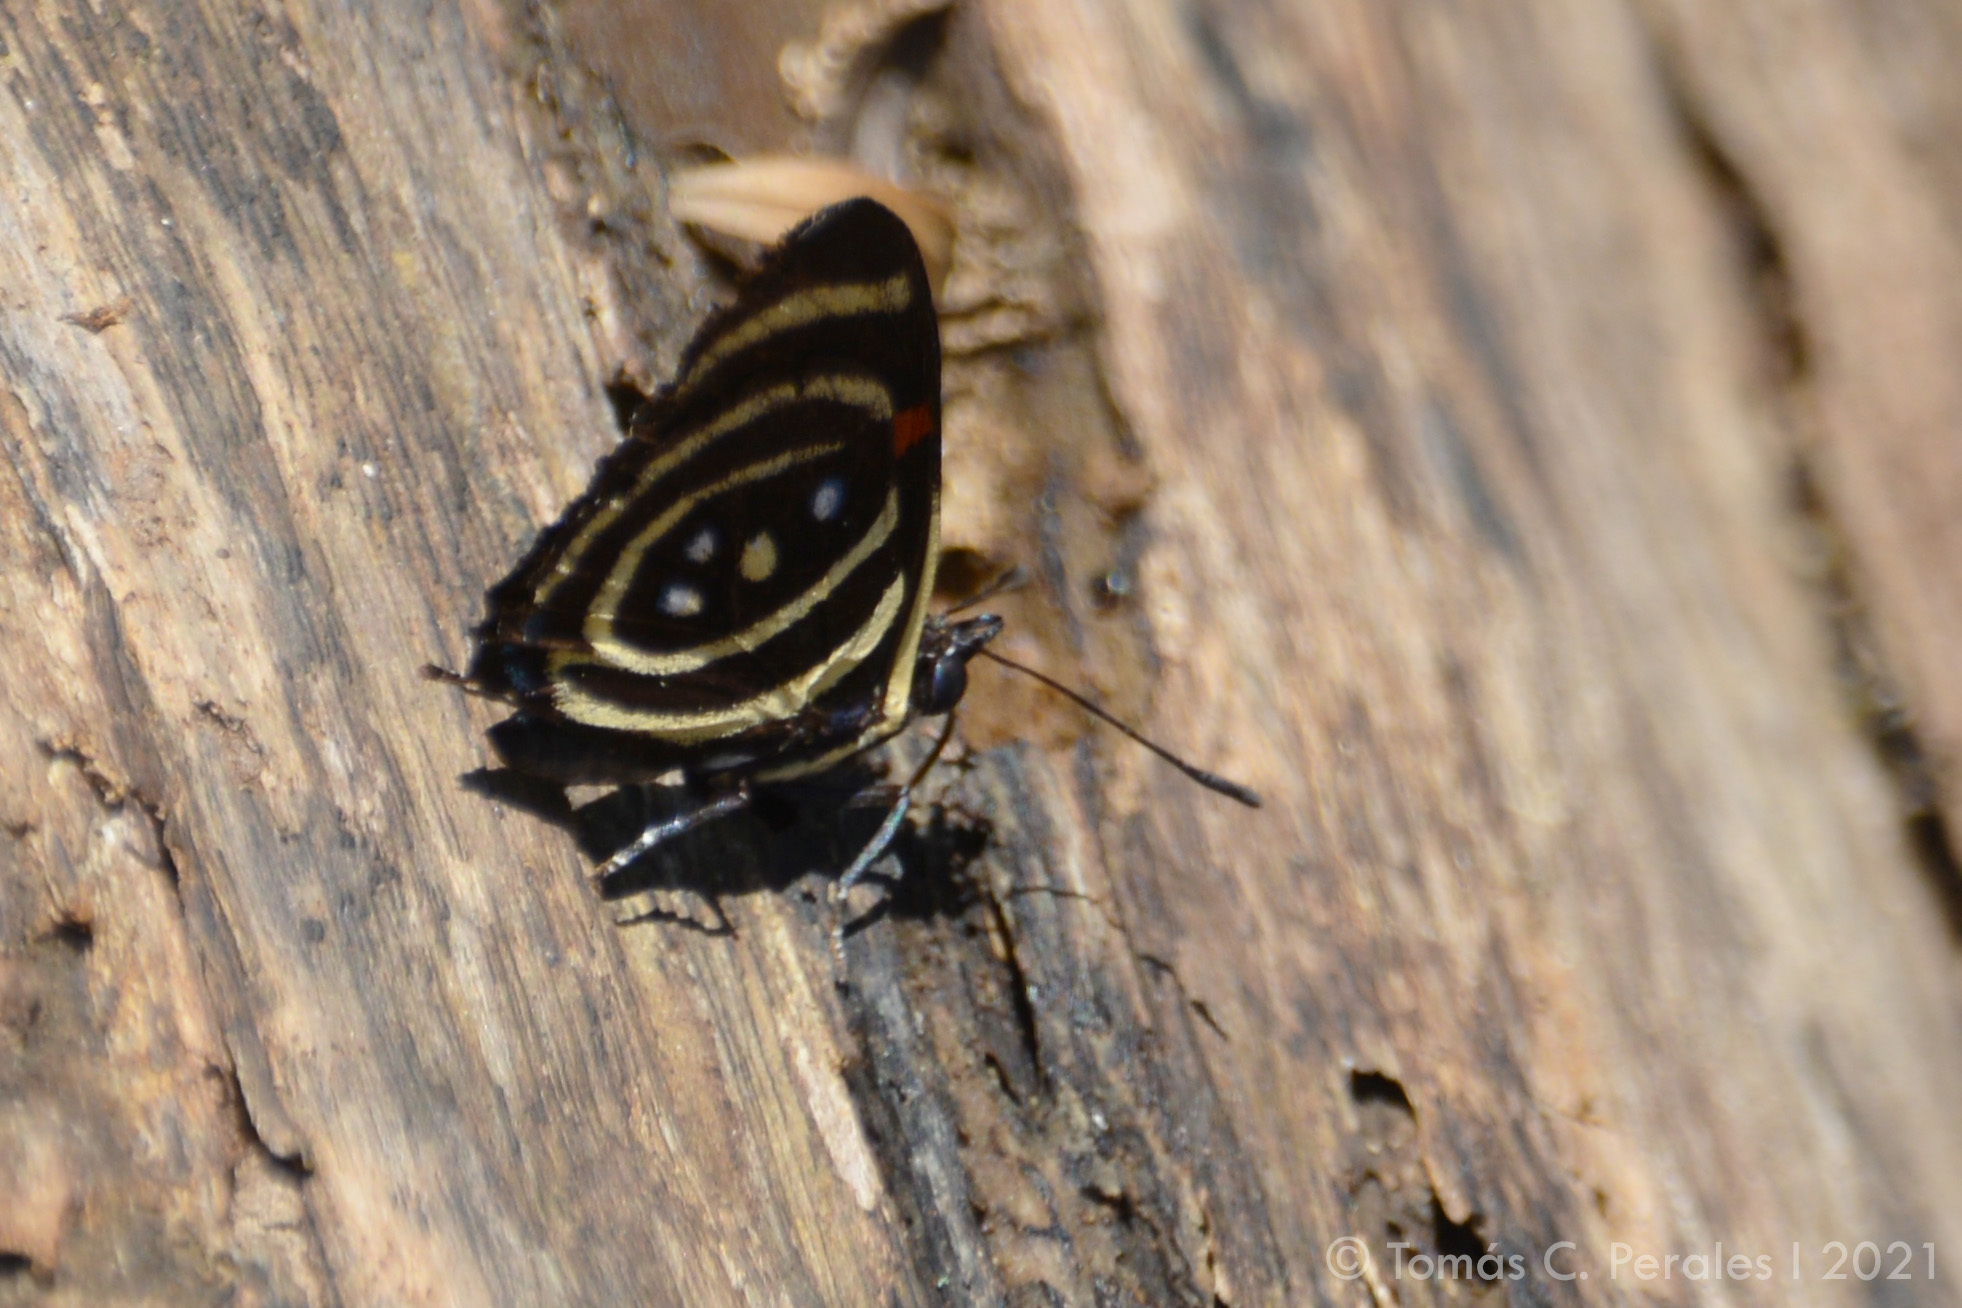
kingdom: Animalia
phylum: Arthropoda
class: Insecta
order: Lepidoptera
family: Nymphalidae
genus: Catagramma
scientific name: Catagramma Callicore hydaspes
